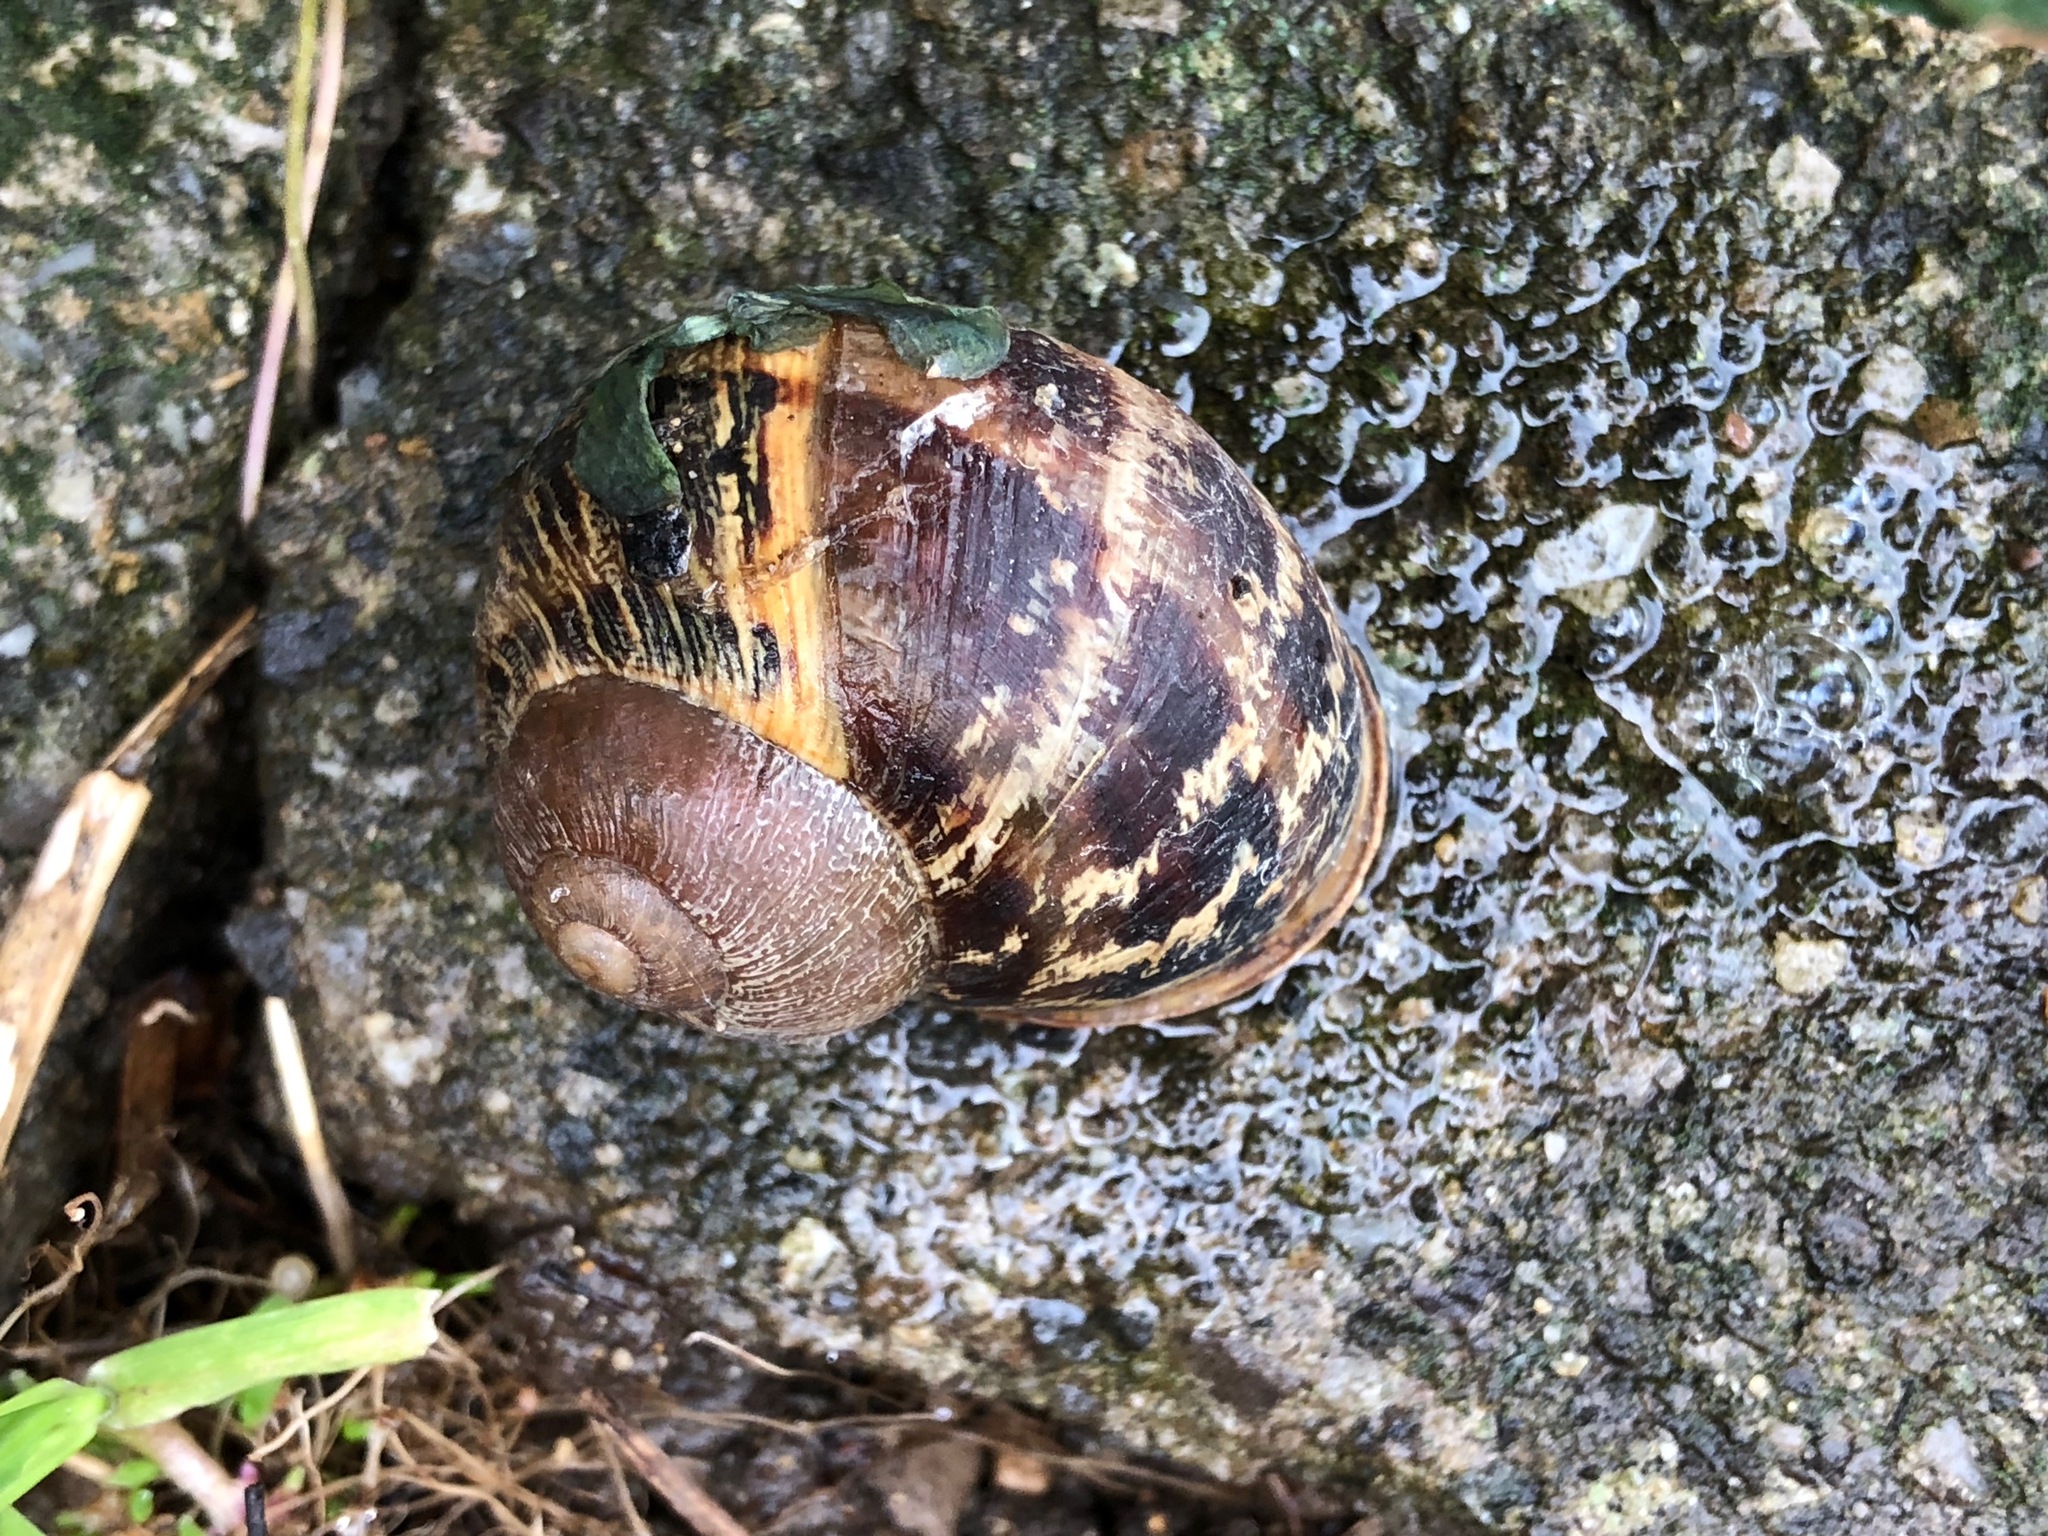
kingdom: Animalia
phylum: Mollusca
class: Gastropoda
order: Stylommatophora
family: Helicidae
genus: Cornu
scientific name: Cornu aspersum
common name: Brown garden snail
